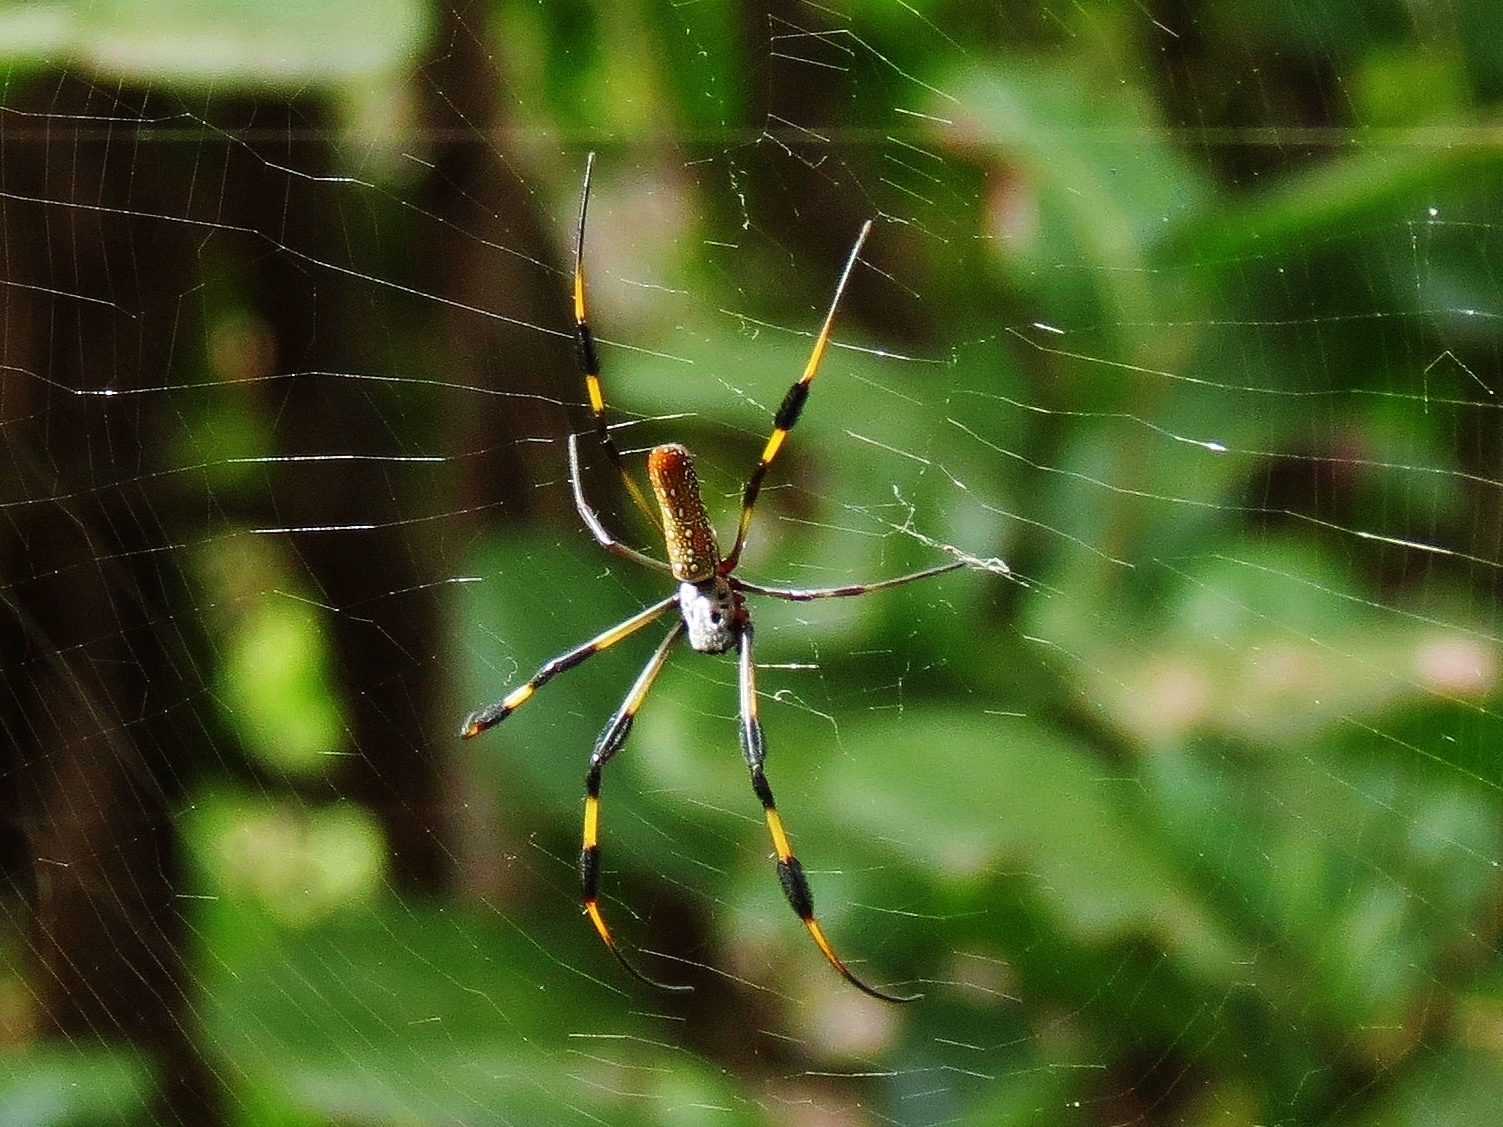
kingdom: Animalia
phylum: Arthropoda
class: Arachnida
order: Araneae
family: Araneidae
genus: Trichonephila
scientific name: Trichonephila clavipes
